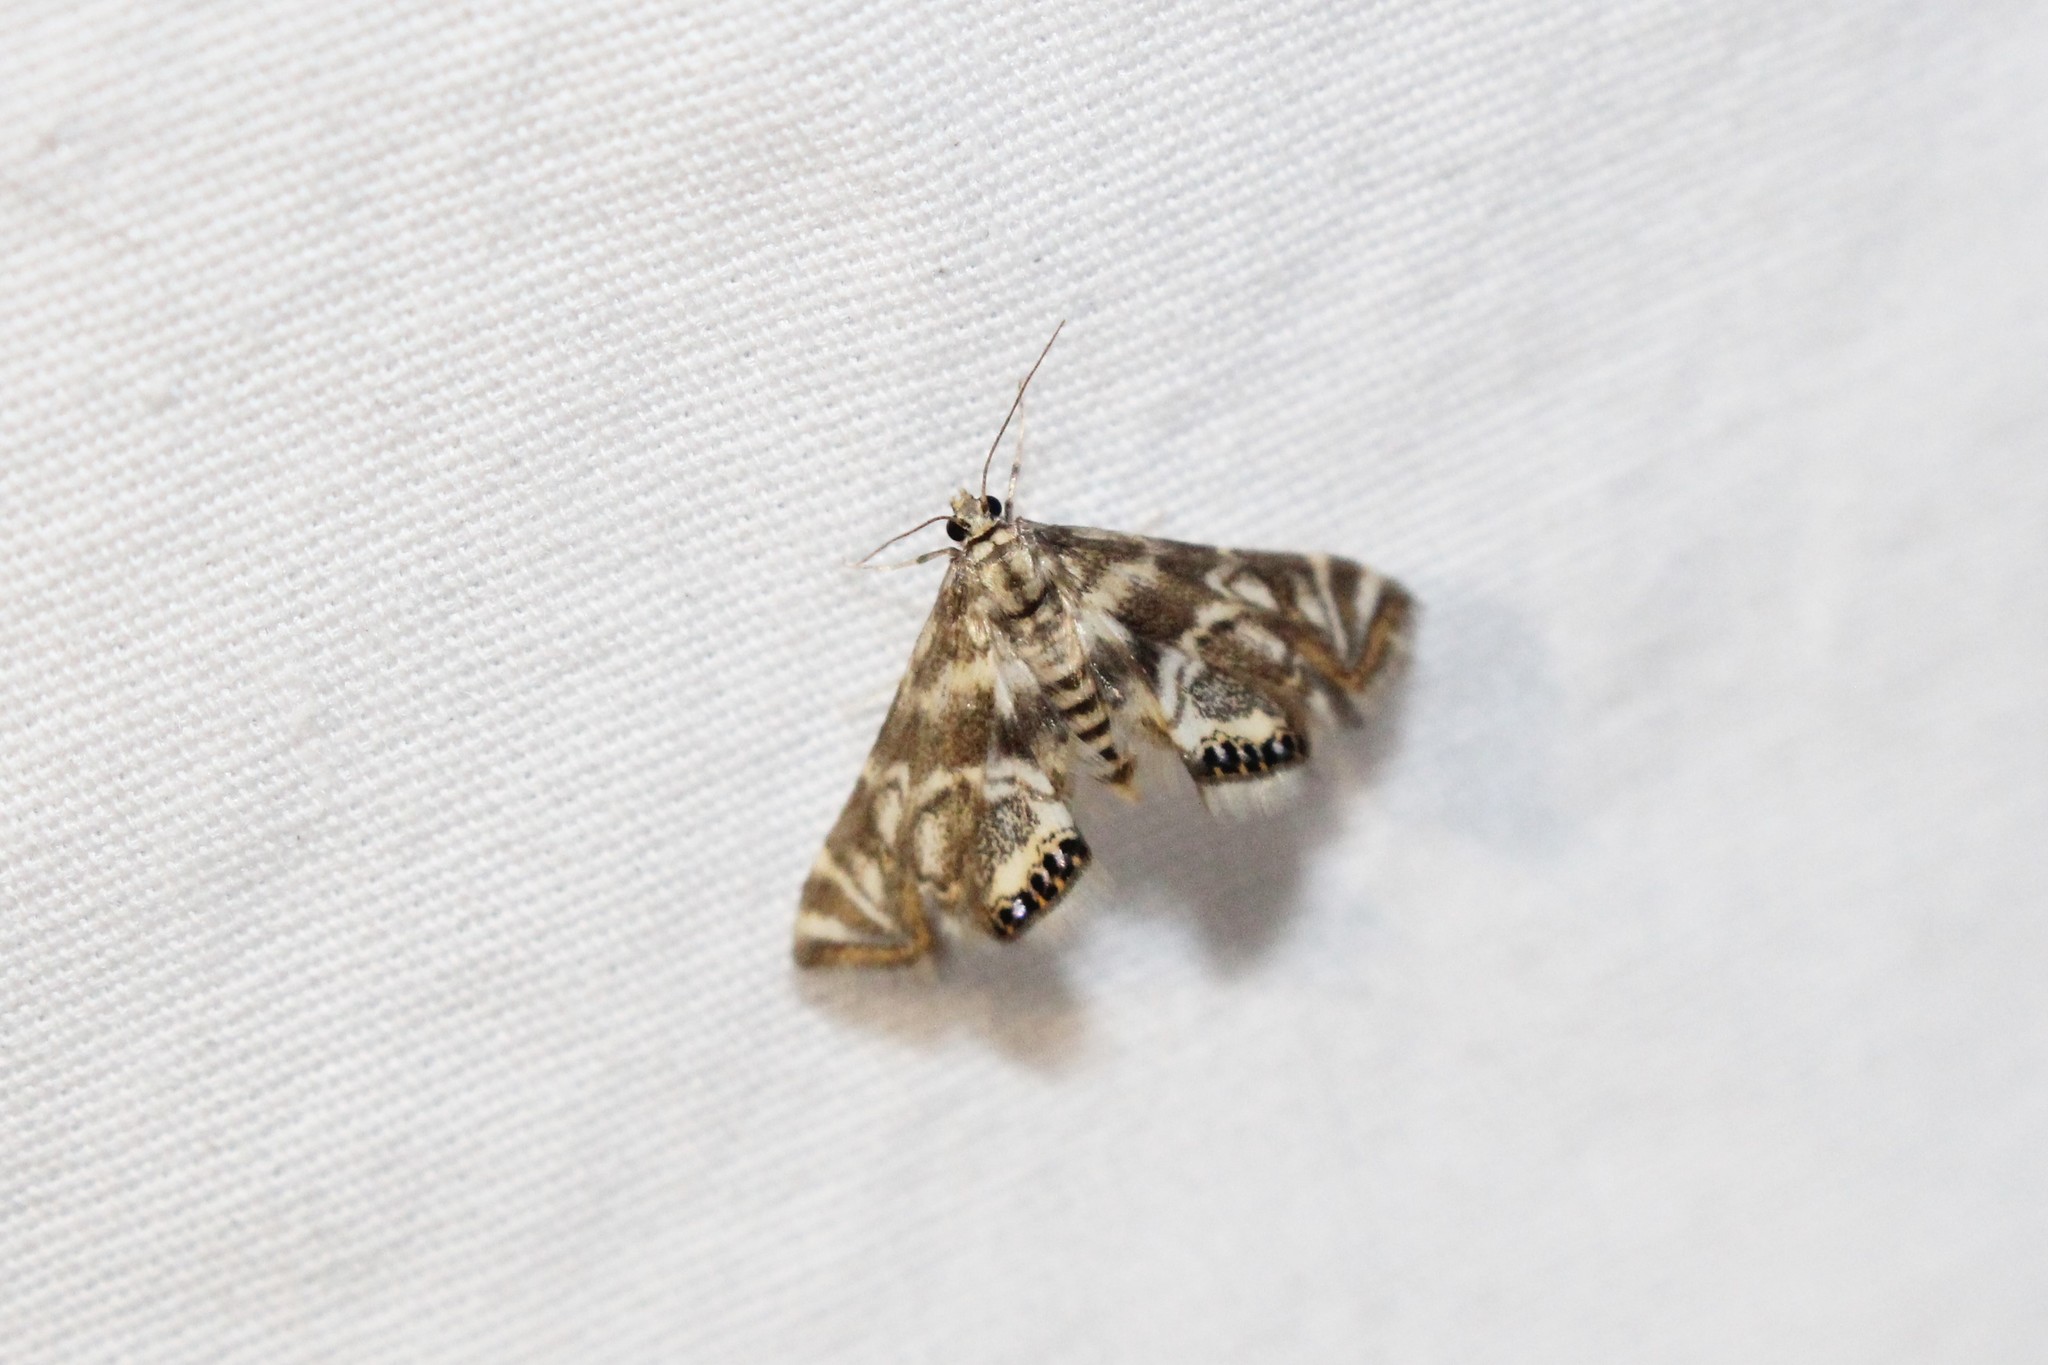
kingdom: Animalia
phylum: Arthropoda
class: Insecta
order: Lepidoptera
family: Crambidae
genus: Petrophila
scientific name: Petrophila canadensis
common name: Canadian petrophila
